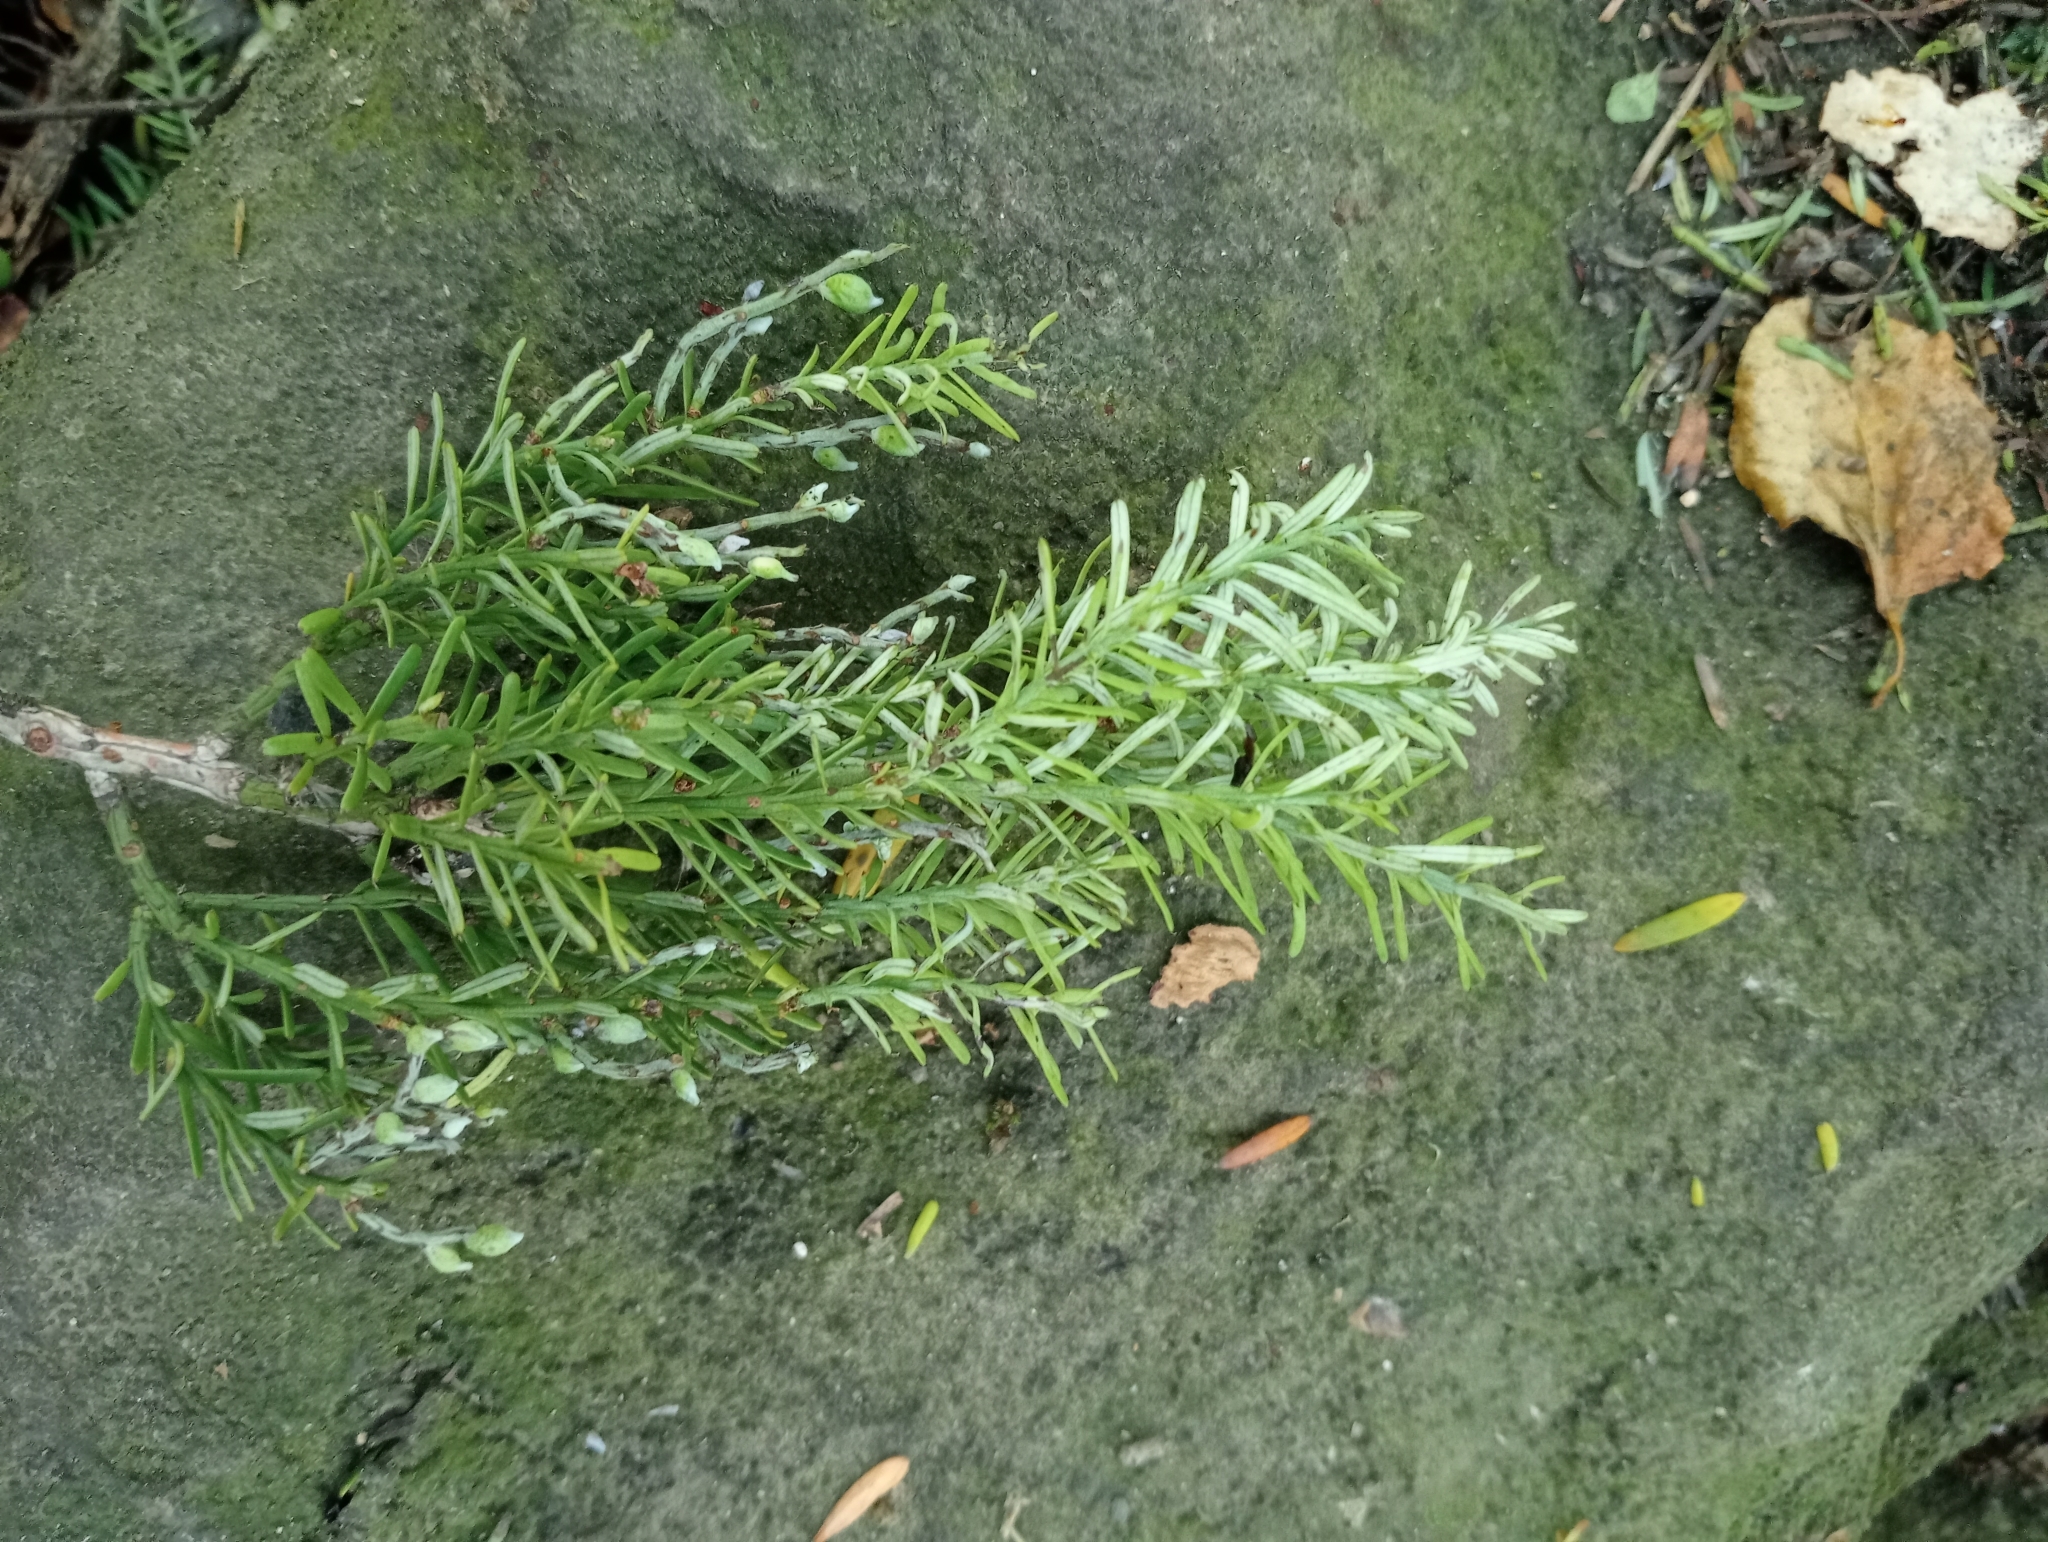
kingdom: Plantae
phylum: Tracheophyta
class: Pinopsida
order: Pinales
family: Podocarpaceae
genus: Prumnopitys
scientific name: Prumnopitys taxifolia
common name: Matai
